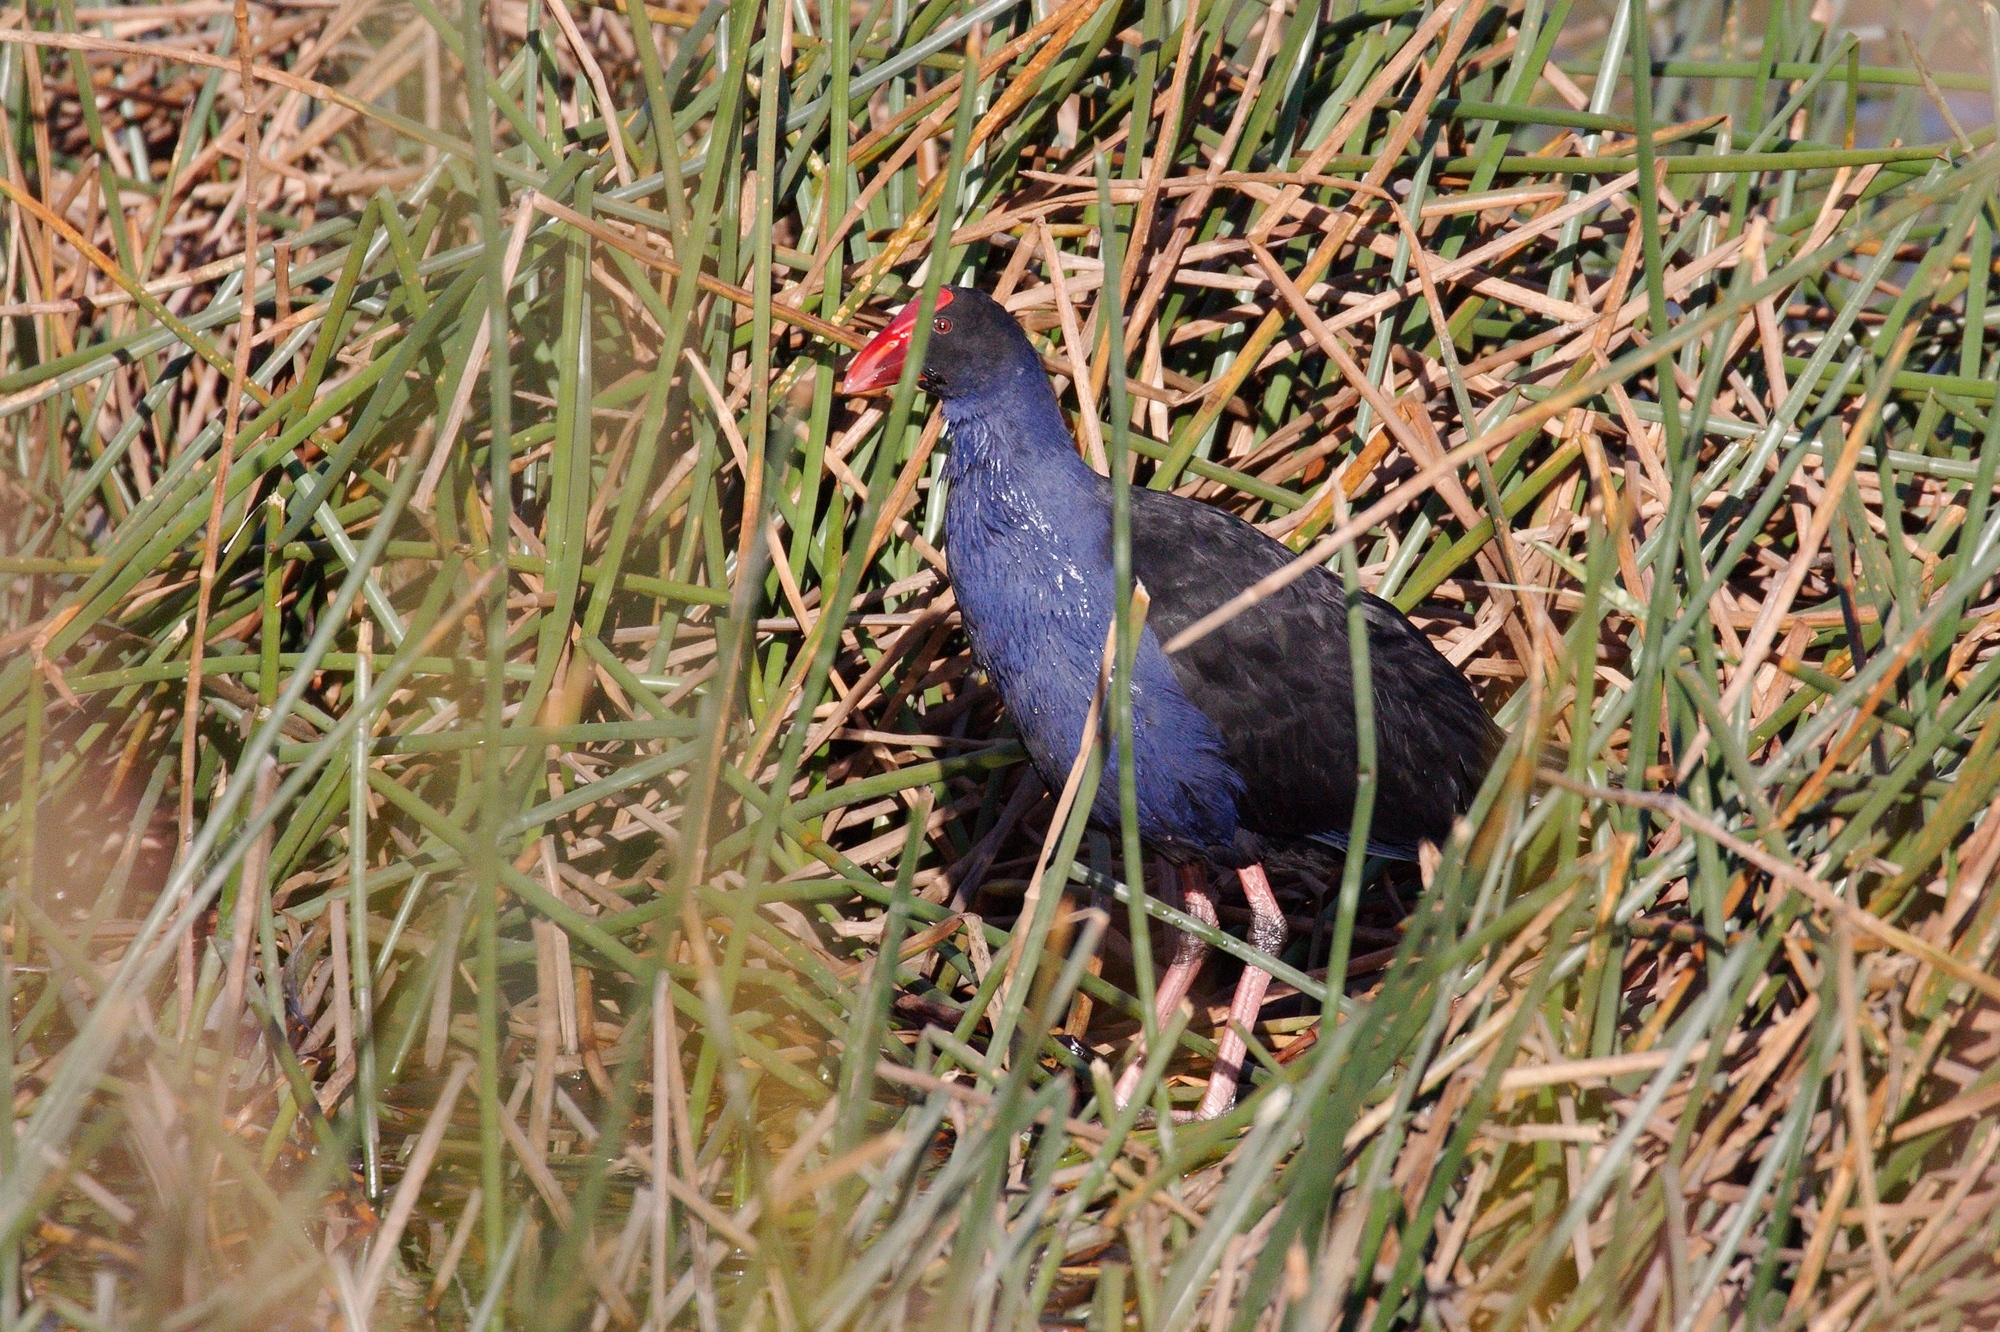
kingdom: Animalia
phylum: Chordata
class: Aves
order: Gruiformes
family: Rallidae
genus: Porphyrio
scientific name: Porphyrio melanotus
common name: Australasian swamphen
